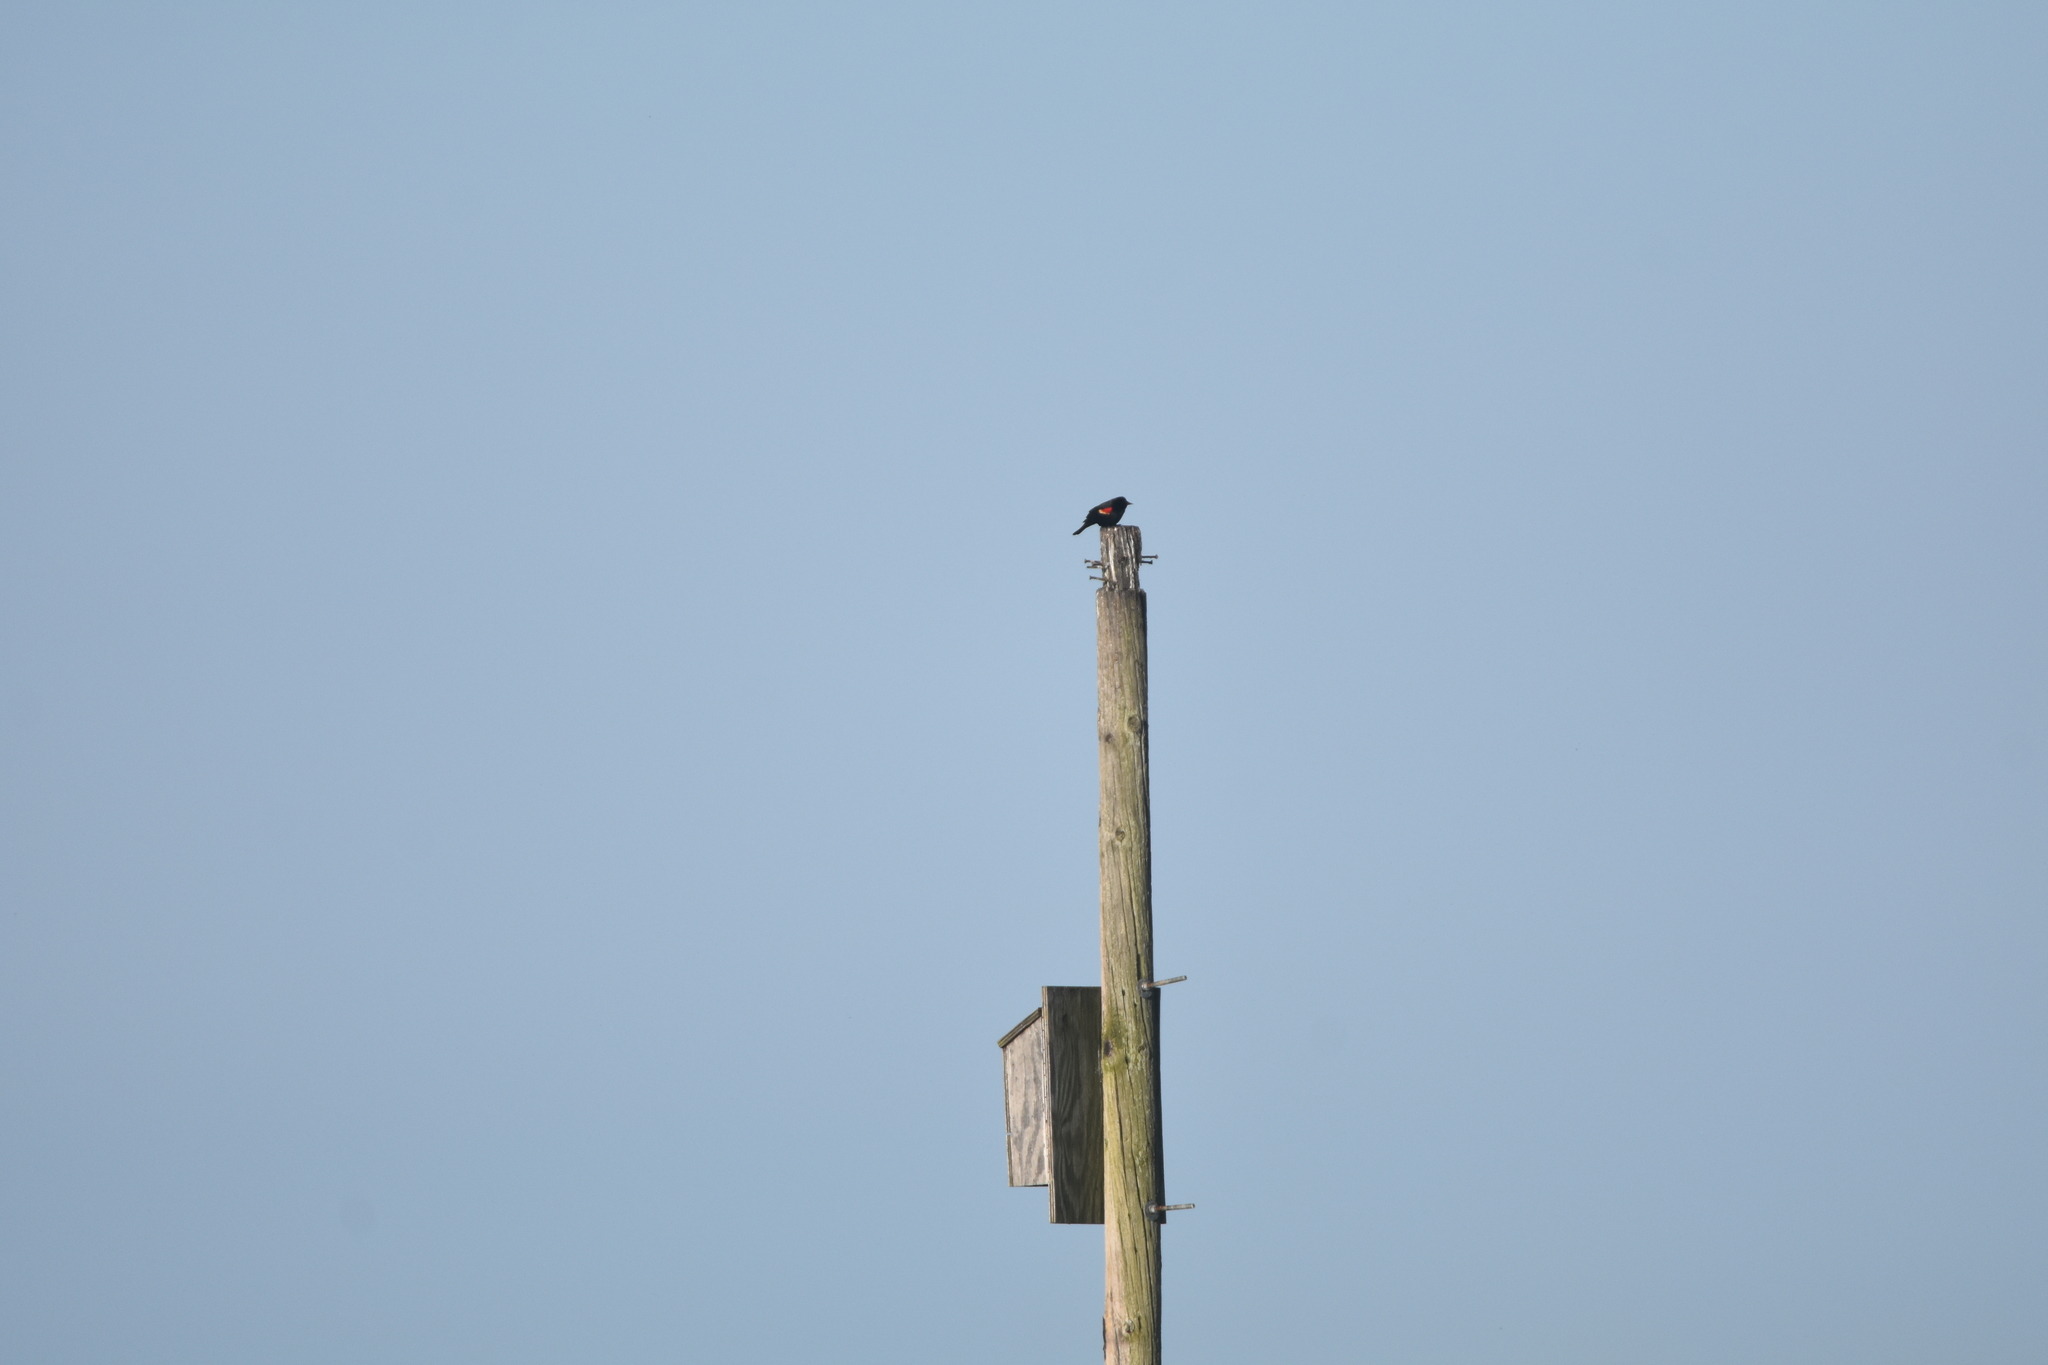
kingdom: Animalia
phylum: Chordata
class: Aves
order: Passeriformes
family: Icteridae
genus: Agelaius
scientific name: Agelaius phoeniceus
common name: Red-winged blackbird
